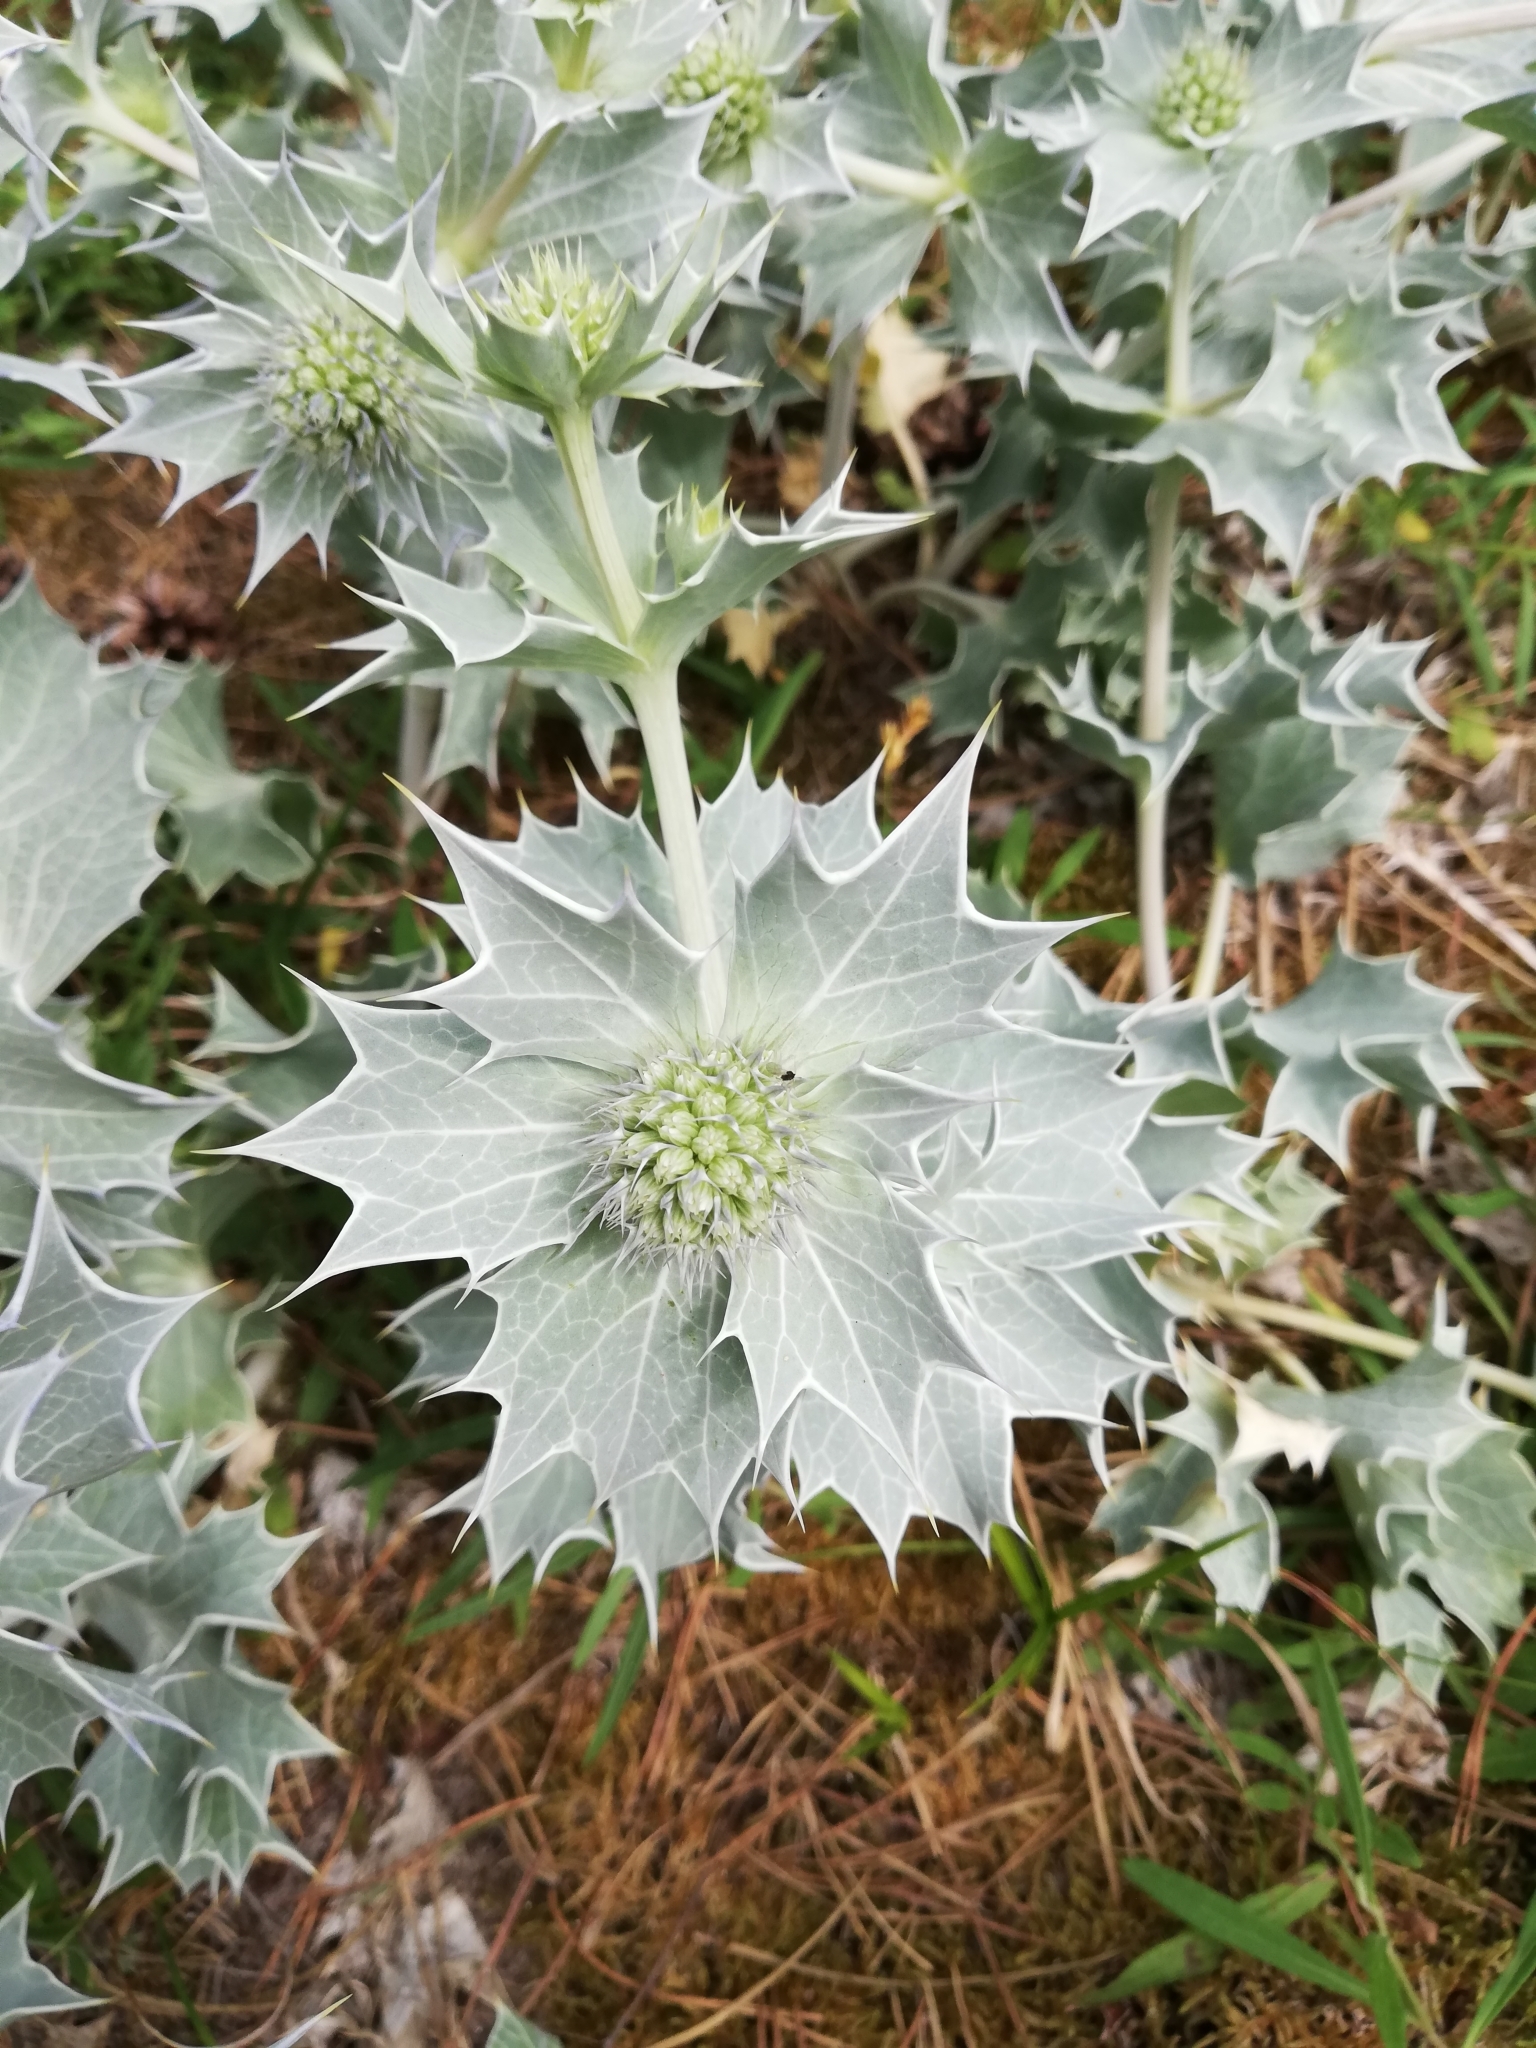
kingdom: Plantae
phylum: Tracheophyta
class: Magnoliopsida
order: Apiales
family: Apiaceae
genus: Eryngium
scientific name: Eryngium maritimum
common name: Sea-holly
